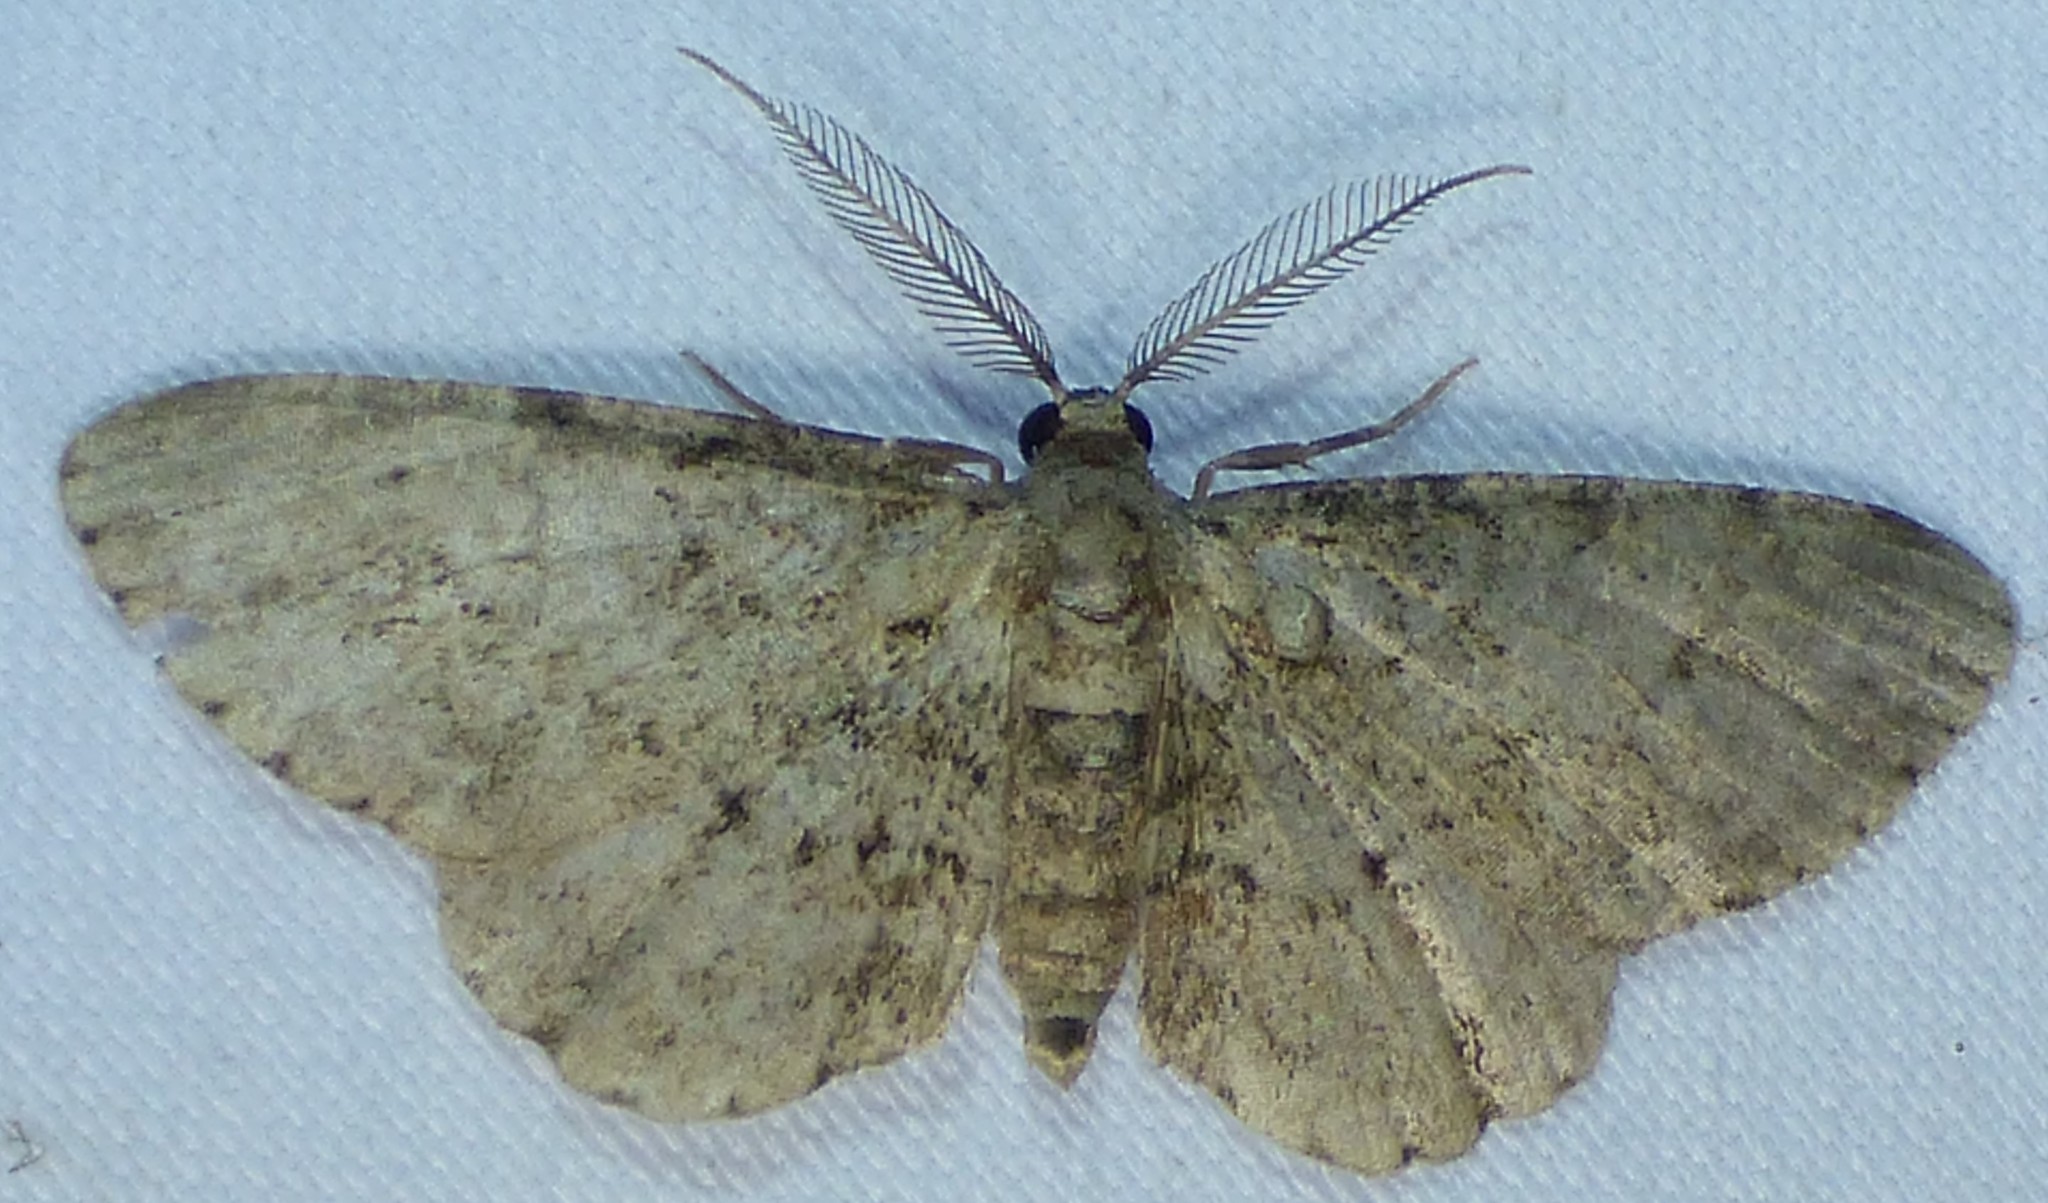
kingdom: Animalia
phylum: Arthropoda
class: Insecta
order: Lepidoptera
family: Geometridae
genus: Glenoides
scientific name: Glenoides texanaria
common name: Texas gray
